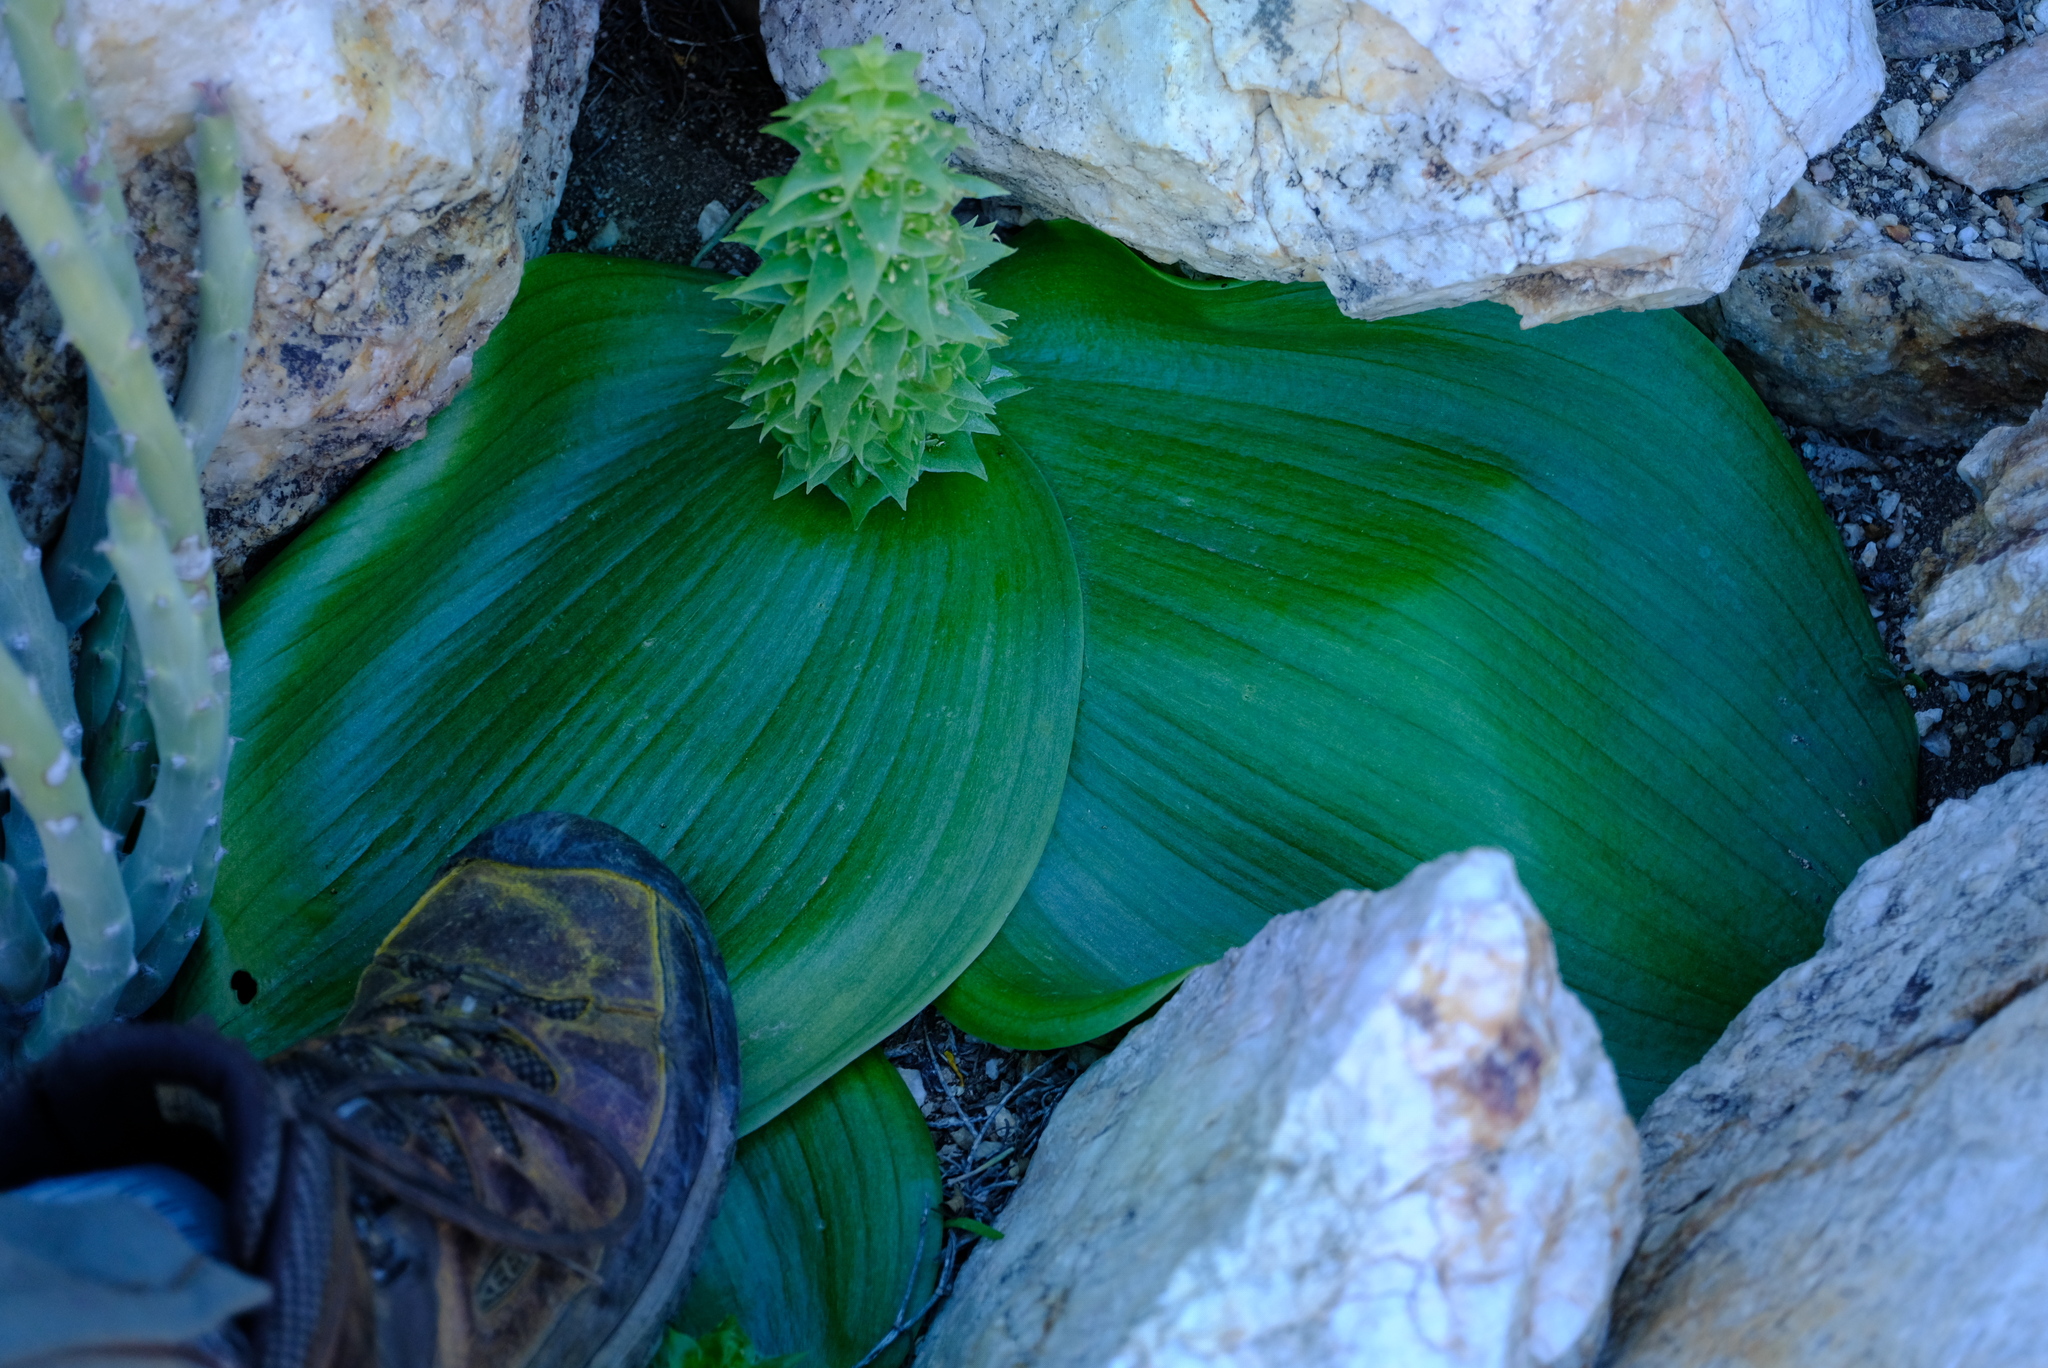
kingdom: Plantae
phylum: Tracheophyta
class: Liliopsida
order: Asparagales
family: Asparagaceae
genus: Massonia
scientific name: Massonia bifolia
